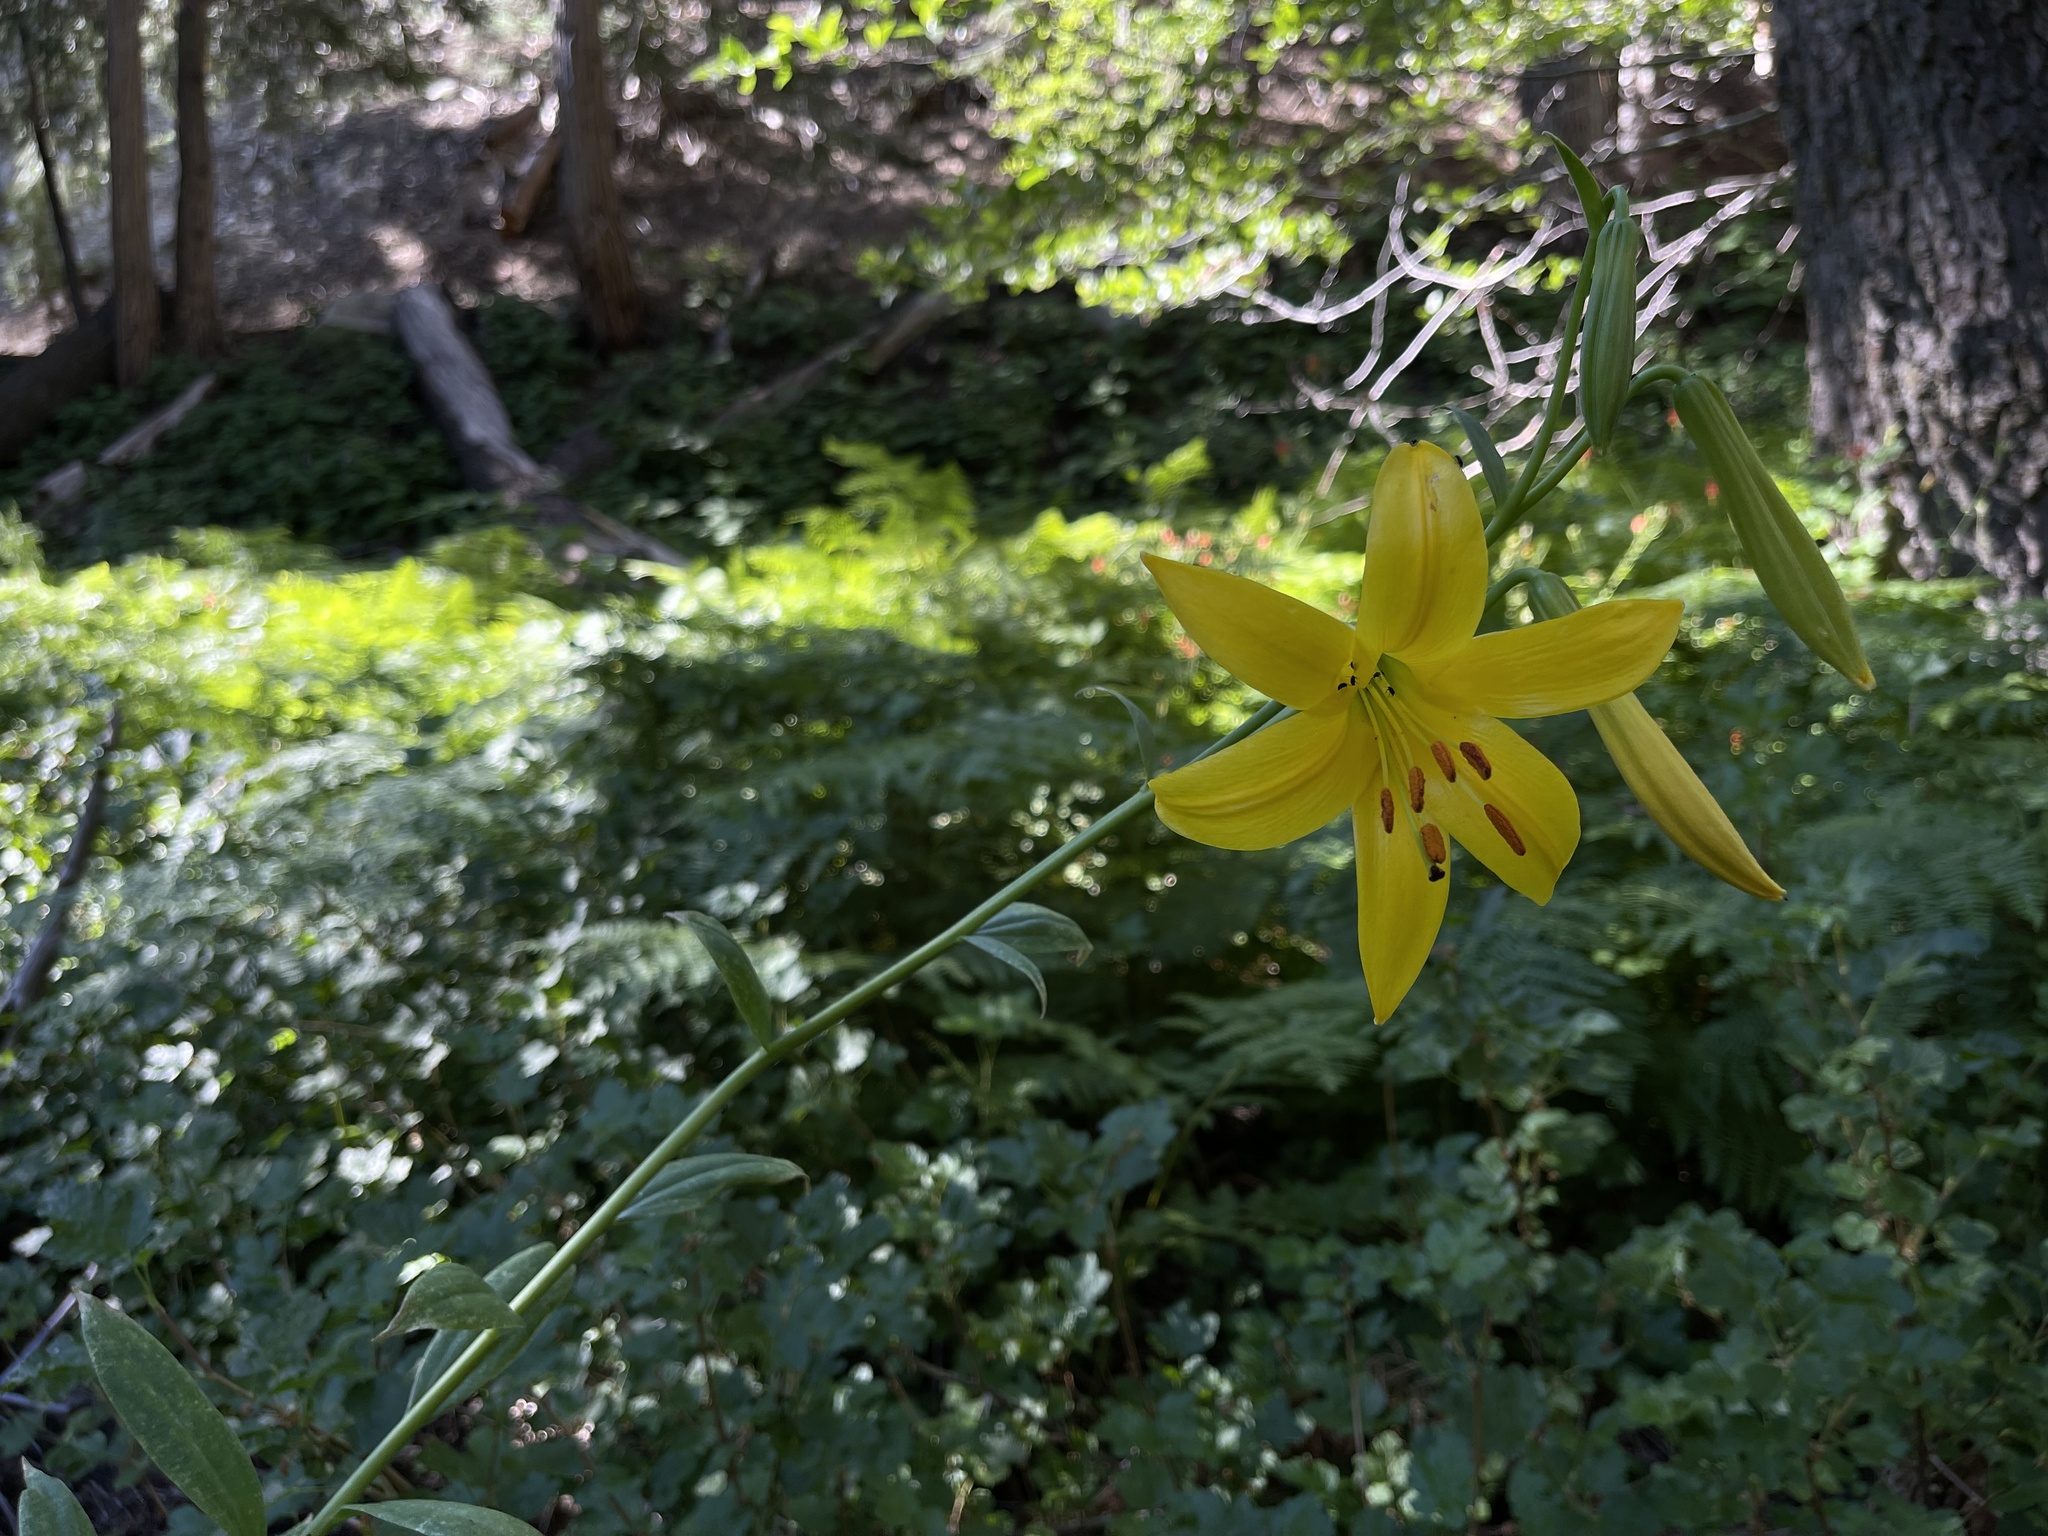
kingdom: Plantae
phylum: Tracheophyta
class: Liliopsida
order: Liliales
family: Liliaceae
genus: Lilium
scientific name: Lilium parryi
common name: Lemon lily
